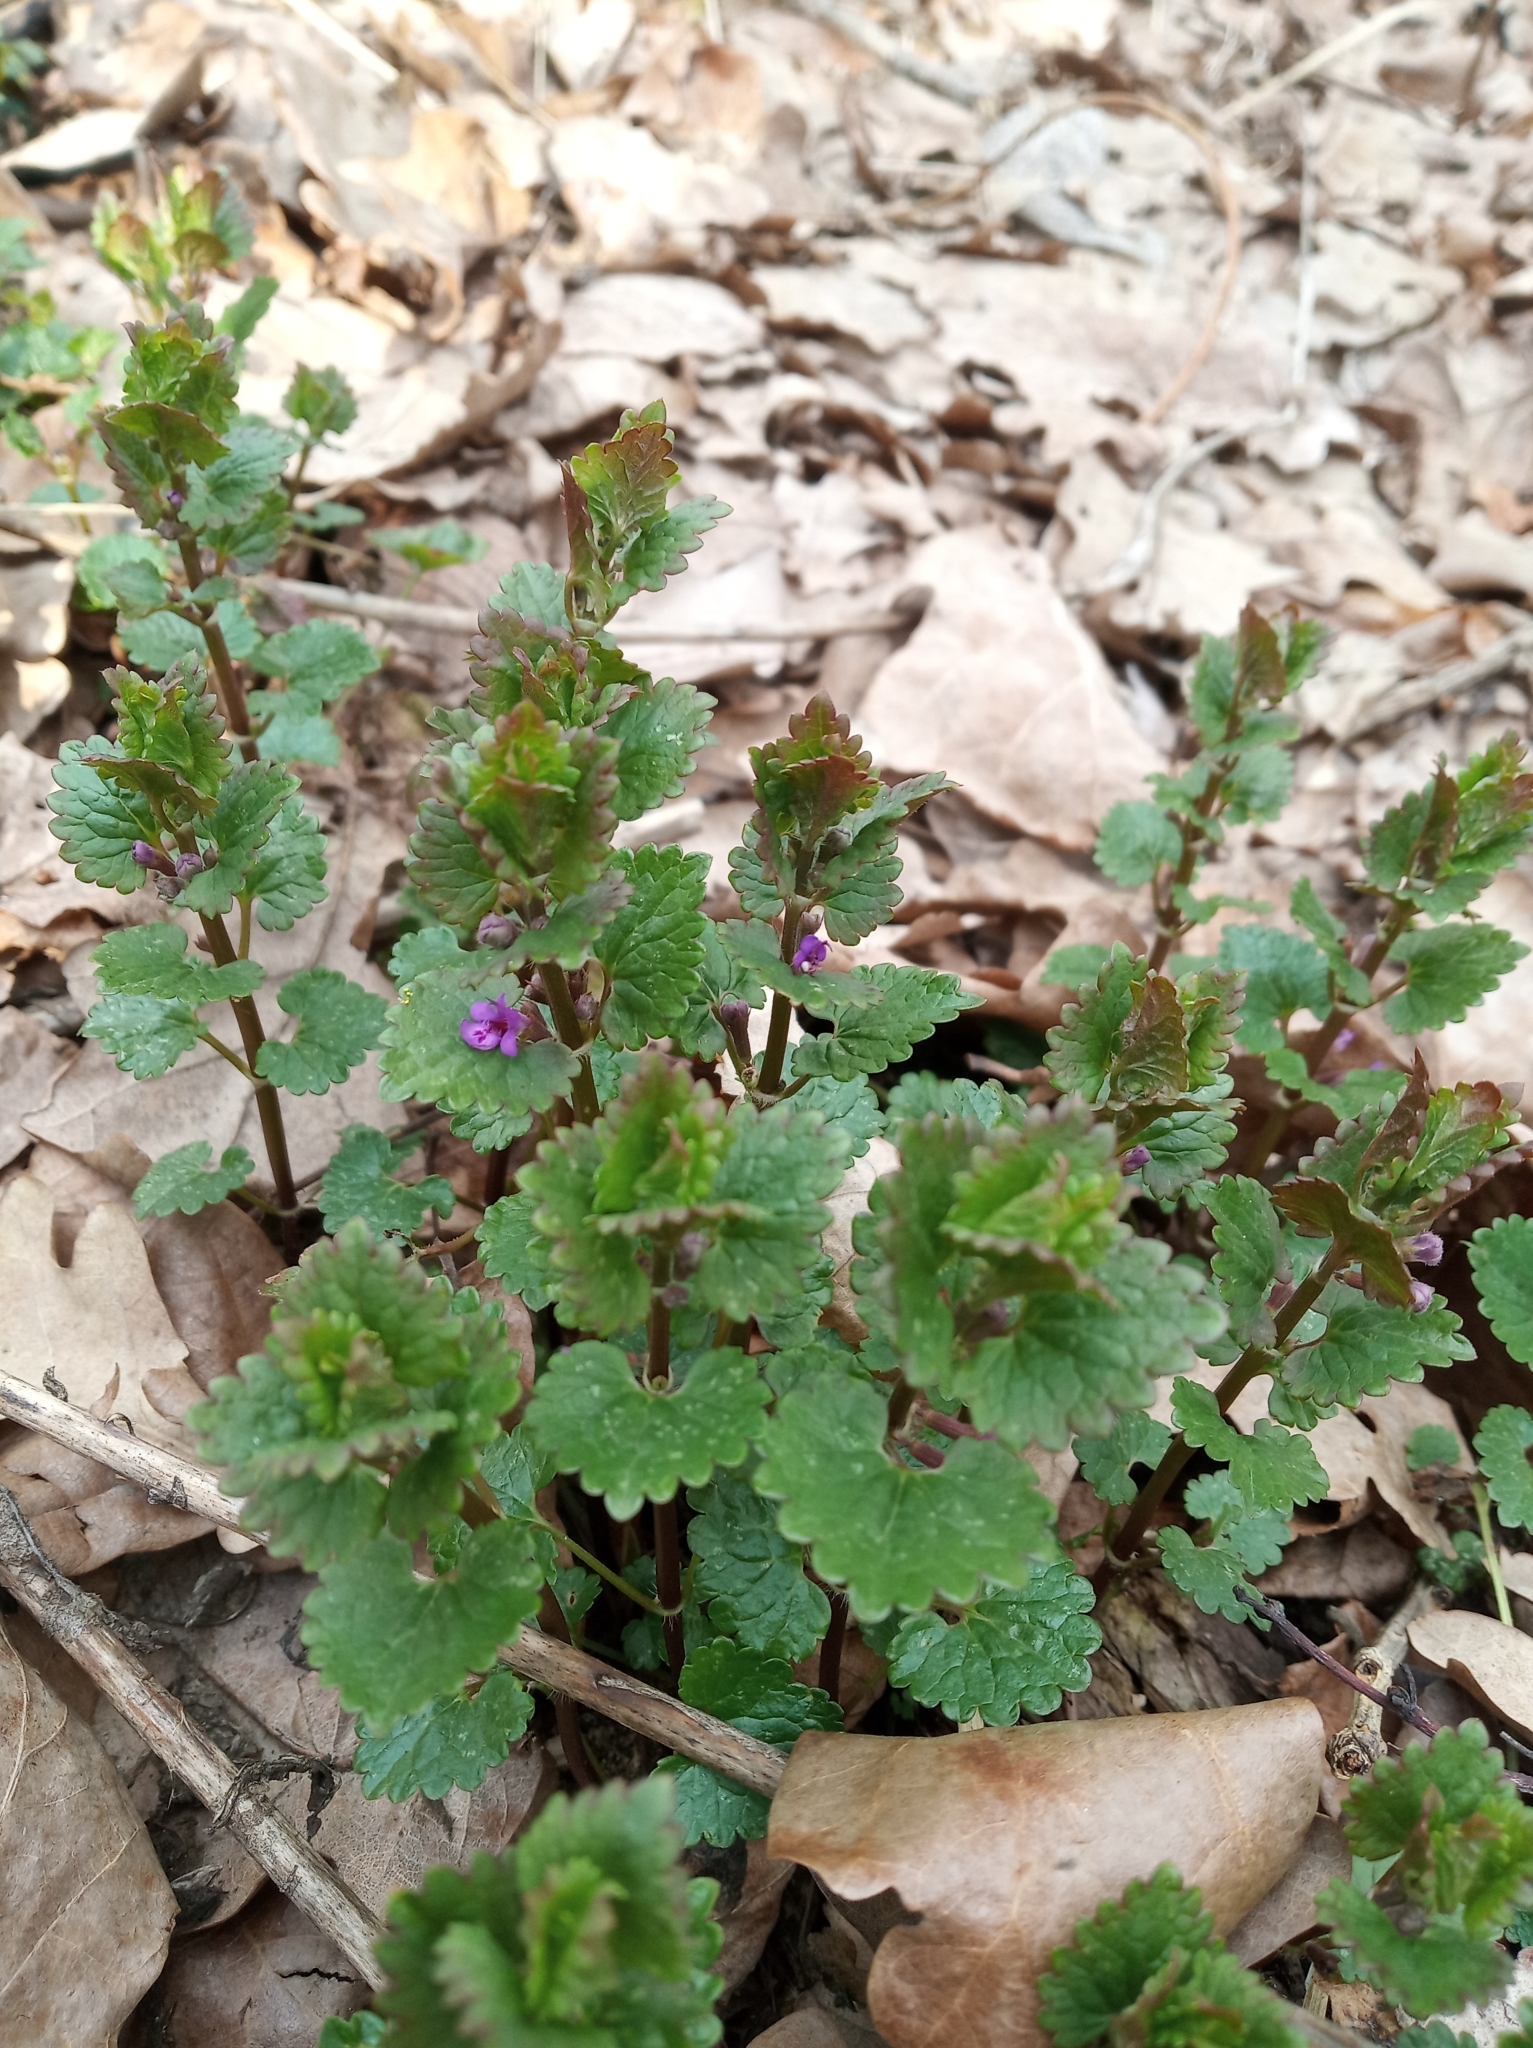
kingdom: Plantae
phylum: Tracheophyta
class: Magnoliopsida
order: Lamiales
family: Lamiaceae
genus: Glechoma
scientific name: Glechoma hederacea
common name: Ground ivy
